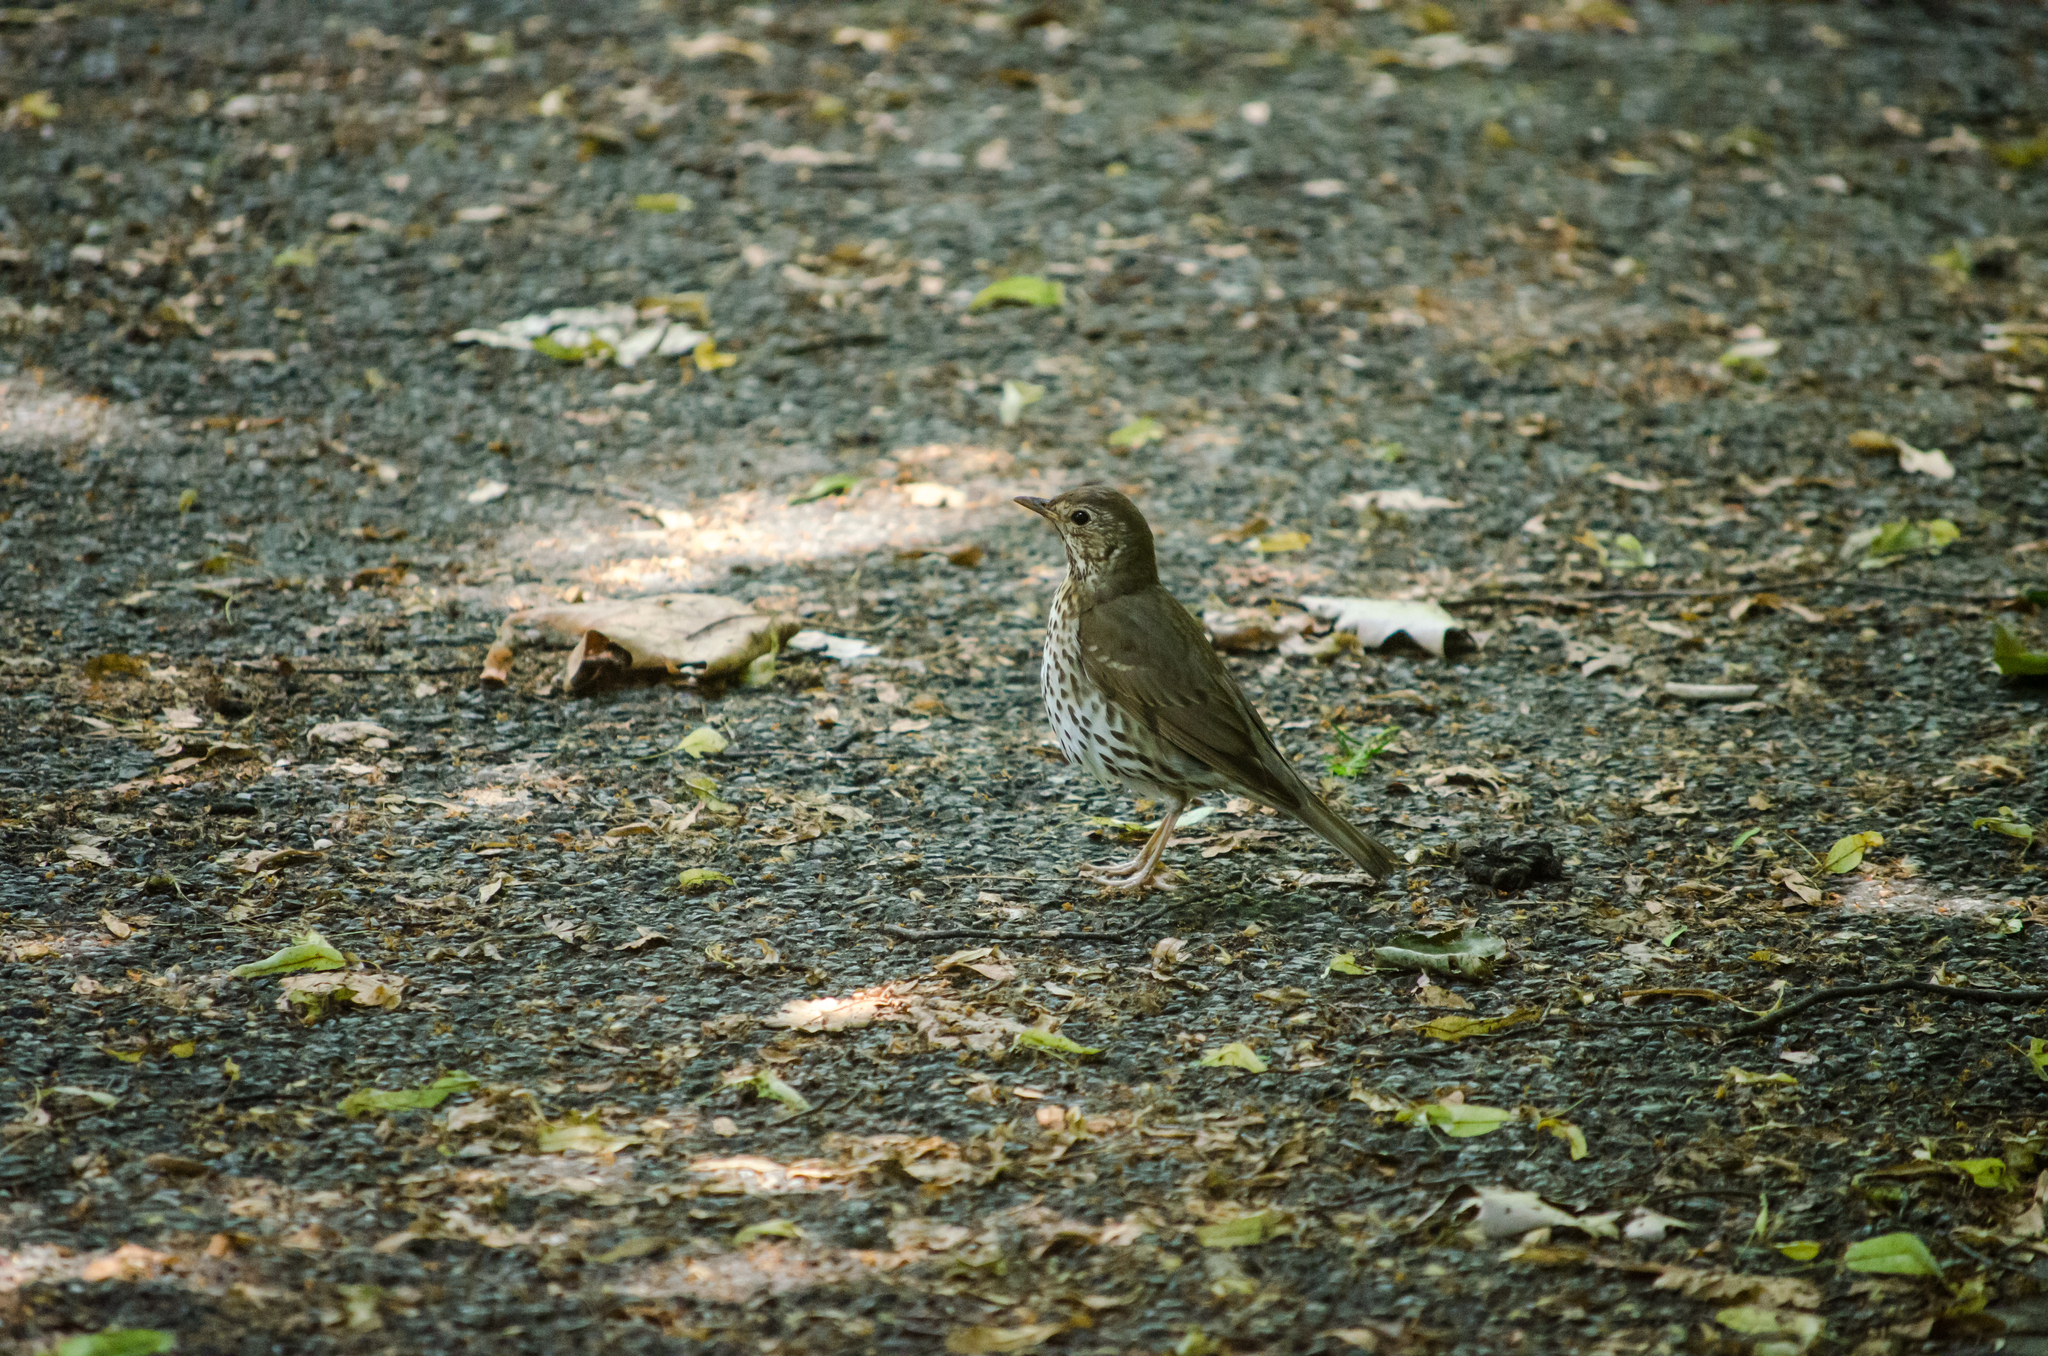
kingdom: Animalia
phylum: Chordata
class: Aves
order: Passeriformes
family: Turdidae
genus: Turdus
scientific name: Turdus philomelos
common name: Song thrush
